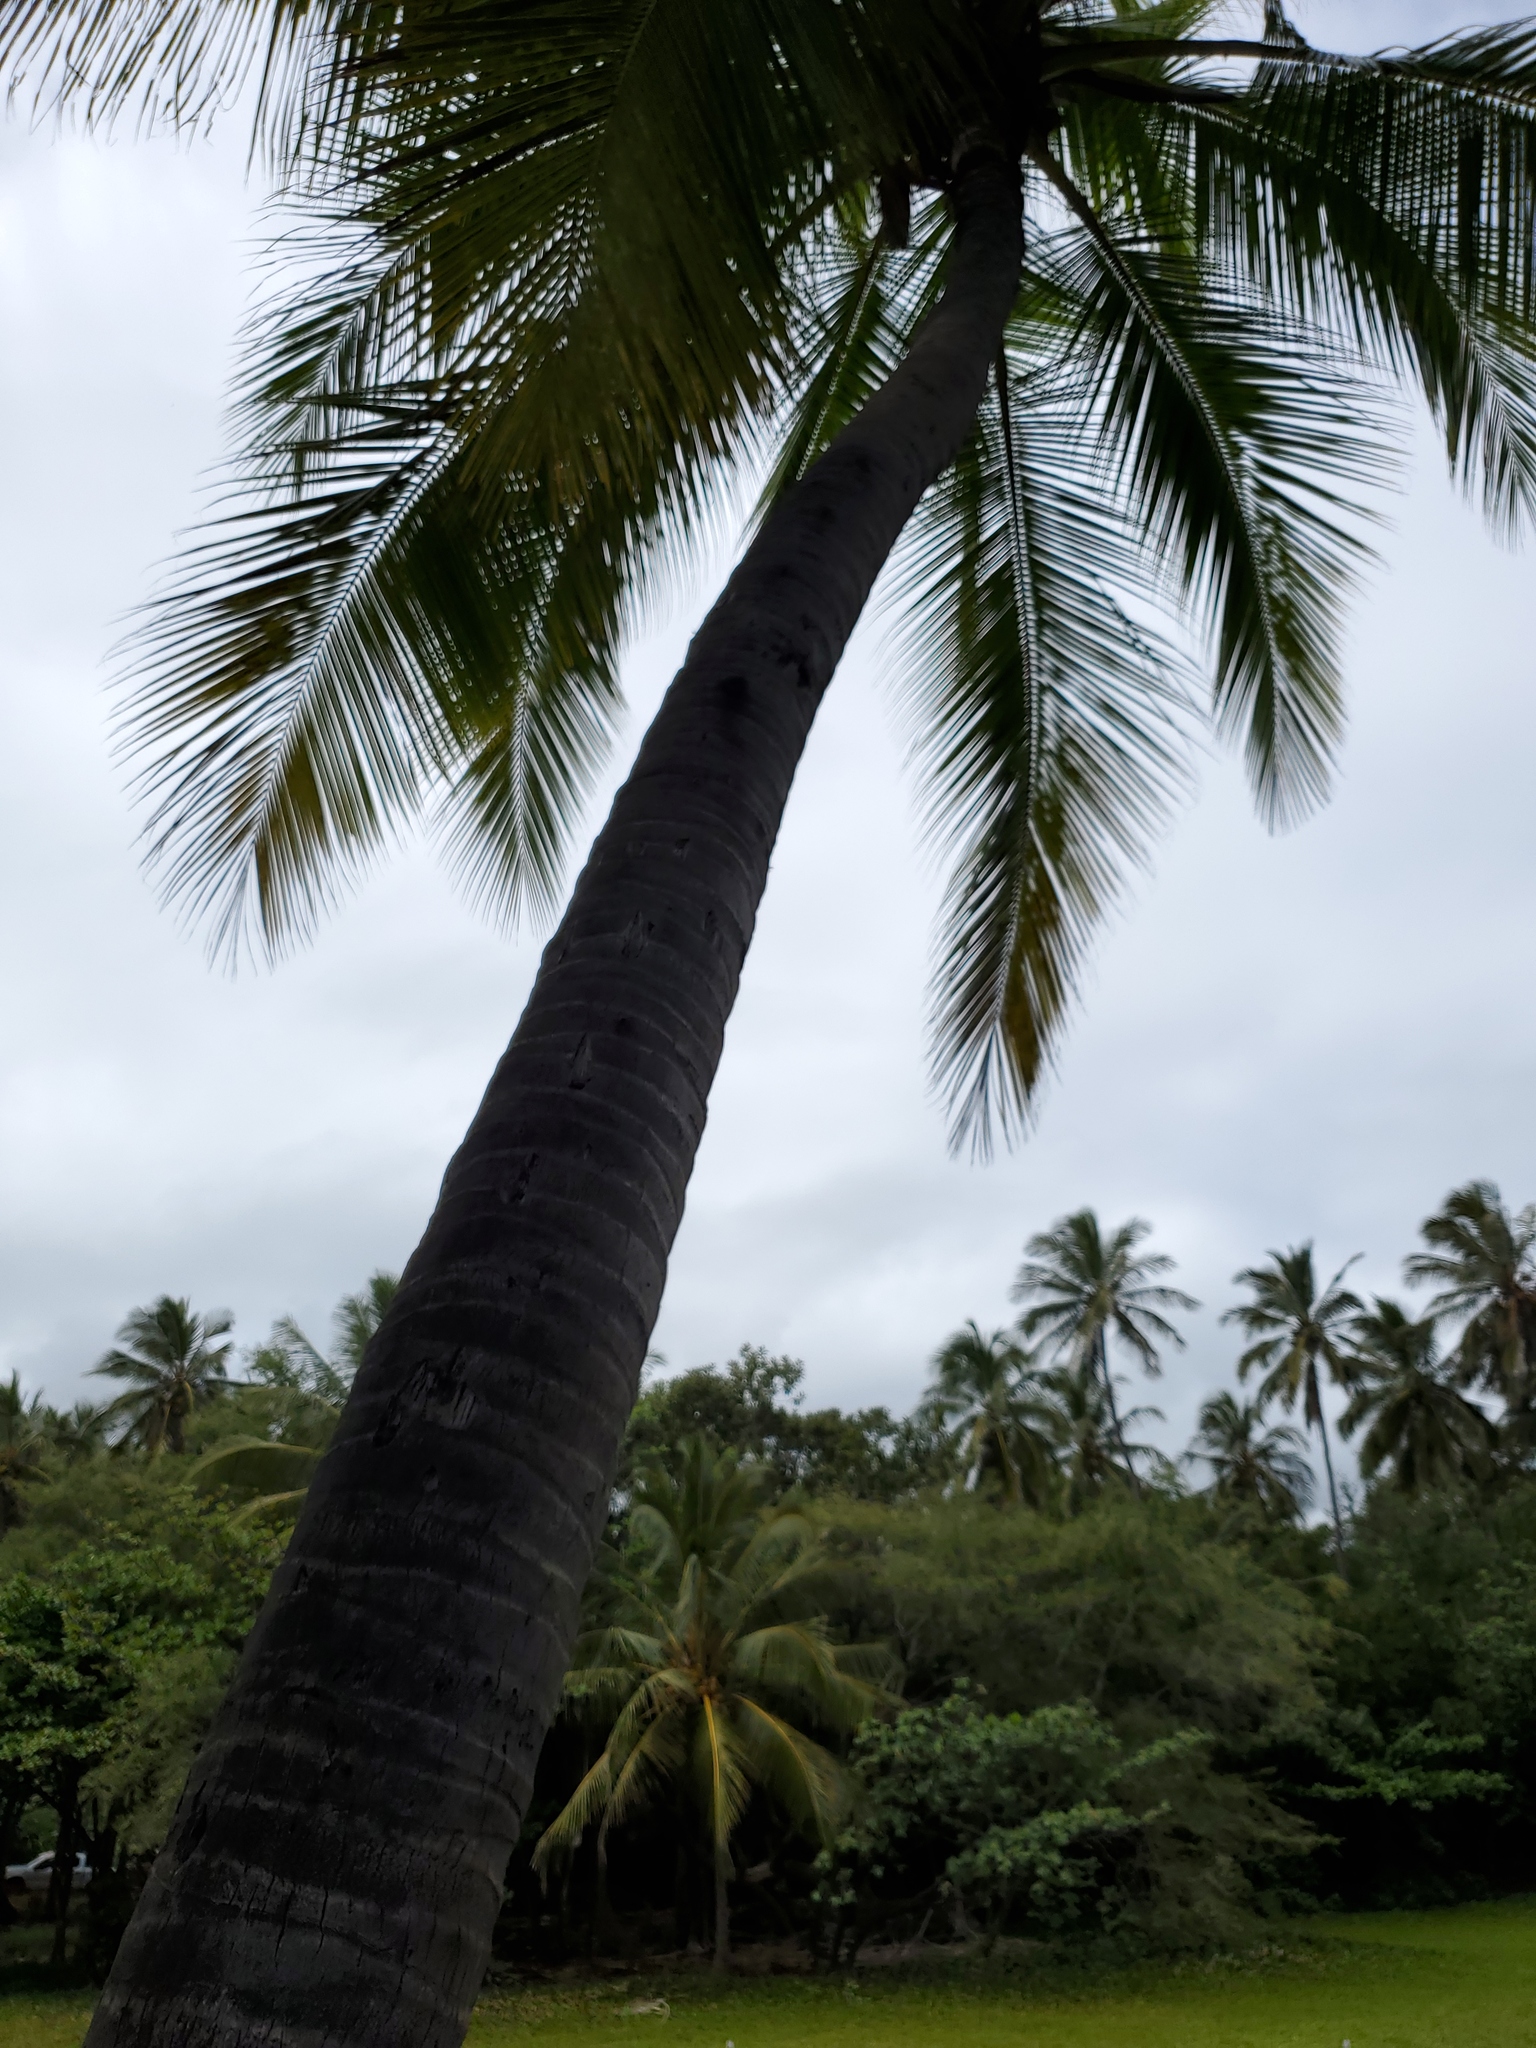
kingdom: Plantae
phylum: Tracheophyta
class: Liliopsida
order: Arecales
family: Arecaceae
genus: Cocos
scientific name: Cocos nucifera
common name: Coconut palm
